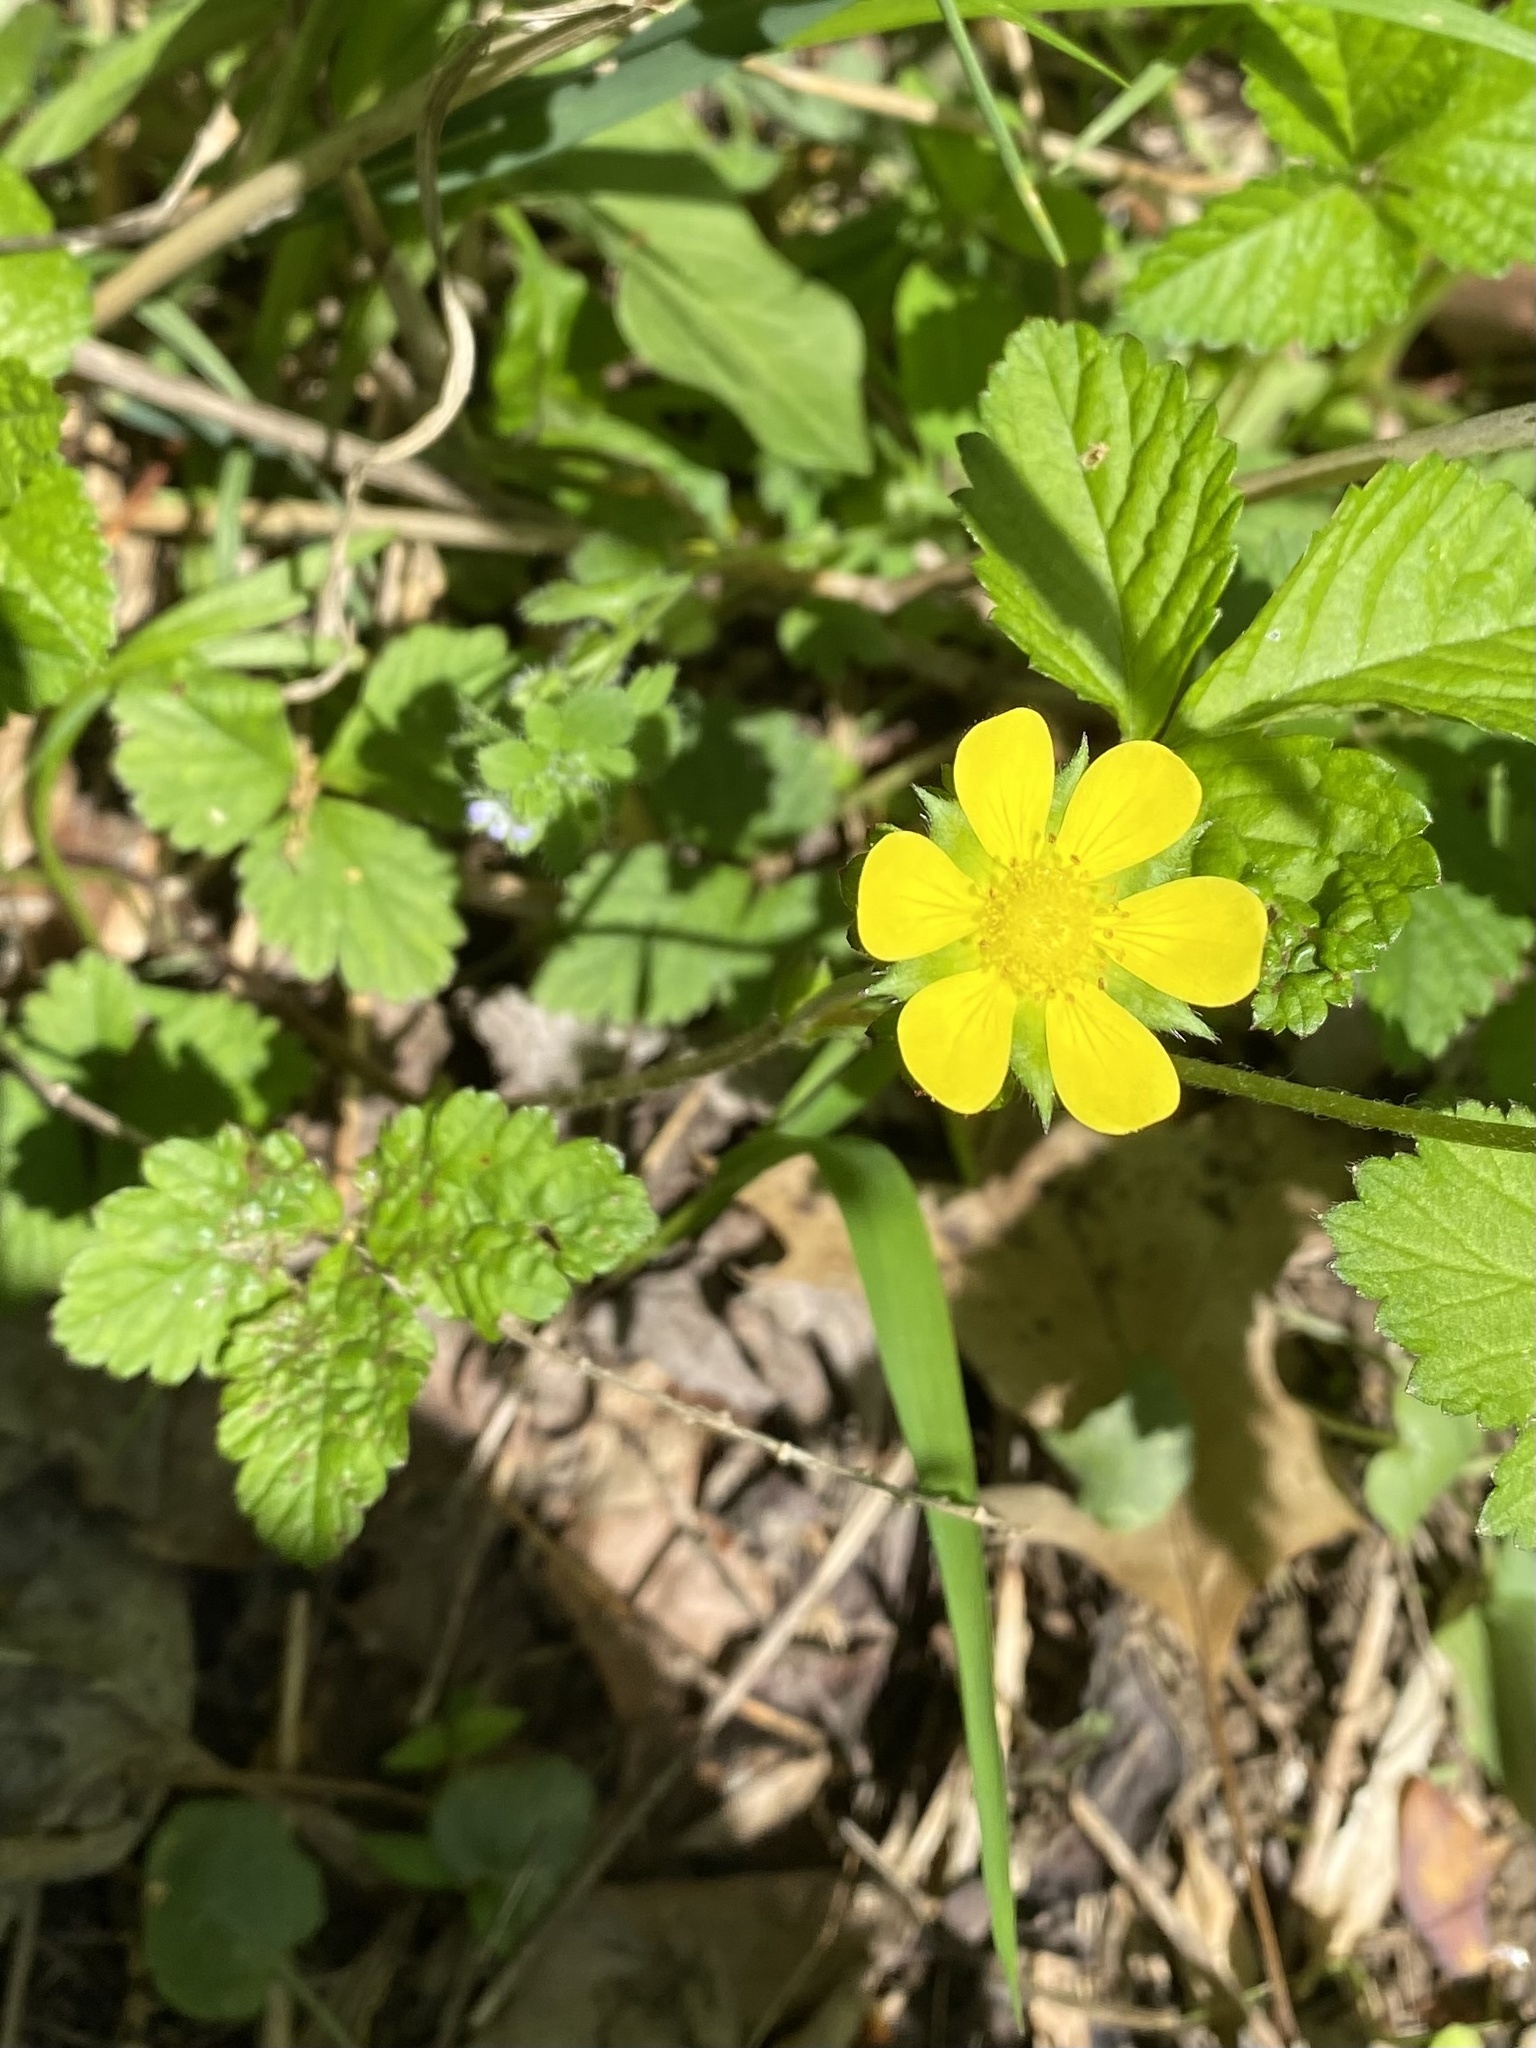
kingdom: Plantae
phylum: Tracheophyta
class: Magnoliopsida
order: Rosales
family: Rosaceae
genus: Potentilla
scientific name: Potentilla indica
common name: Yellow-flowered strawberry
